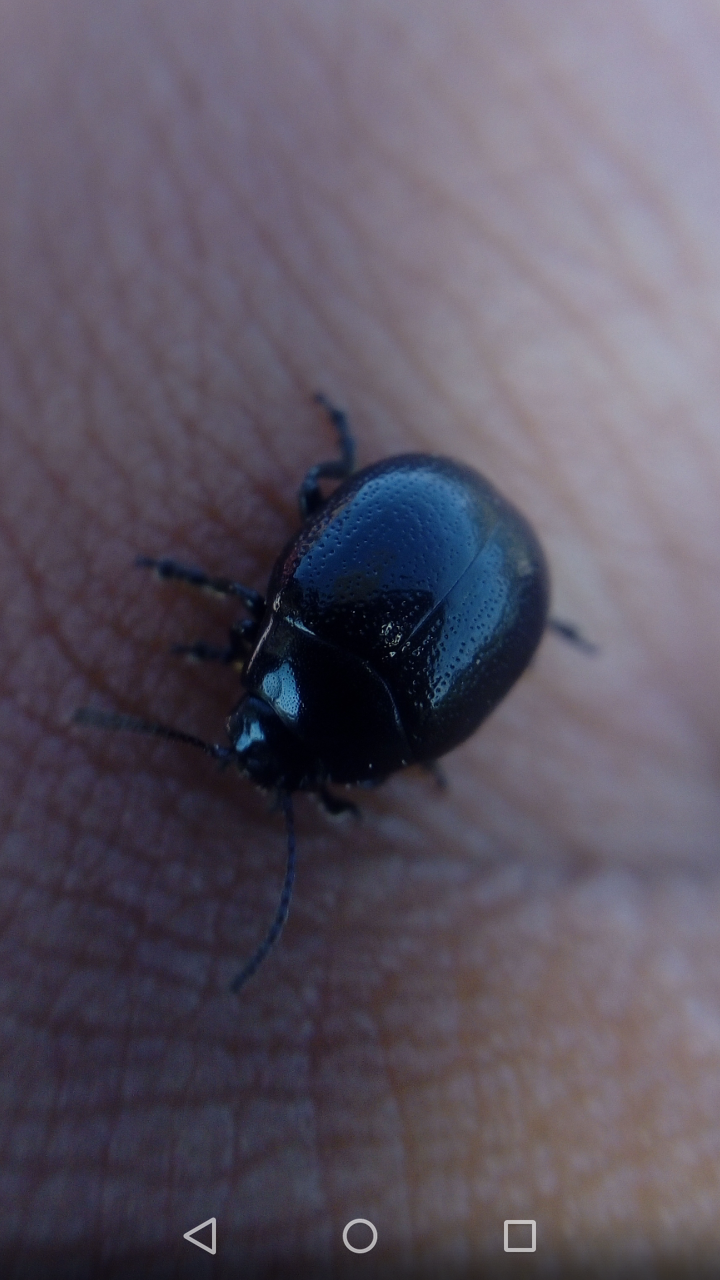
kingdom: Animalia
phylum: Arthropoda
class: Insecta
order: Coleoptera
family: Chrysomelidae
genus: Chrysolina
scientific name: Chrysolina haemoptera
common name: Plantain leaf beetle
